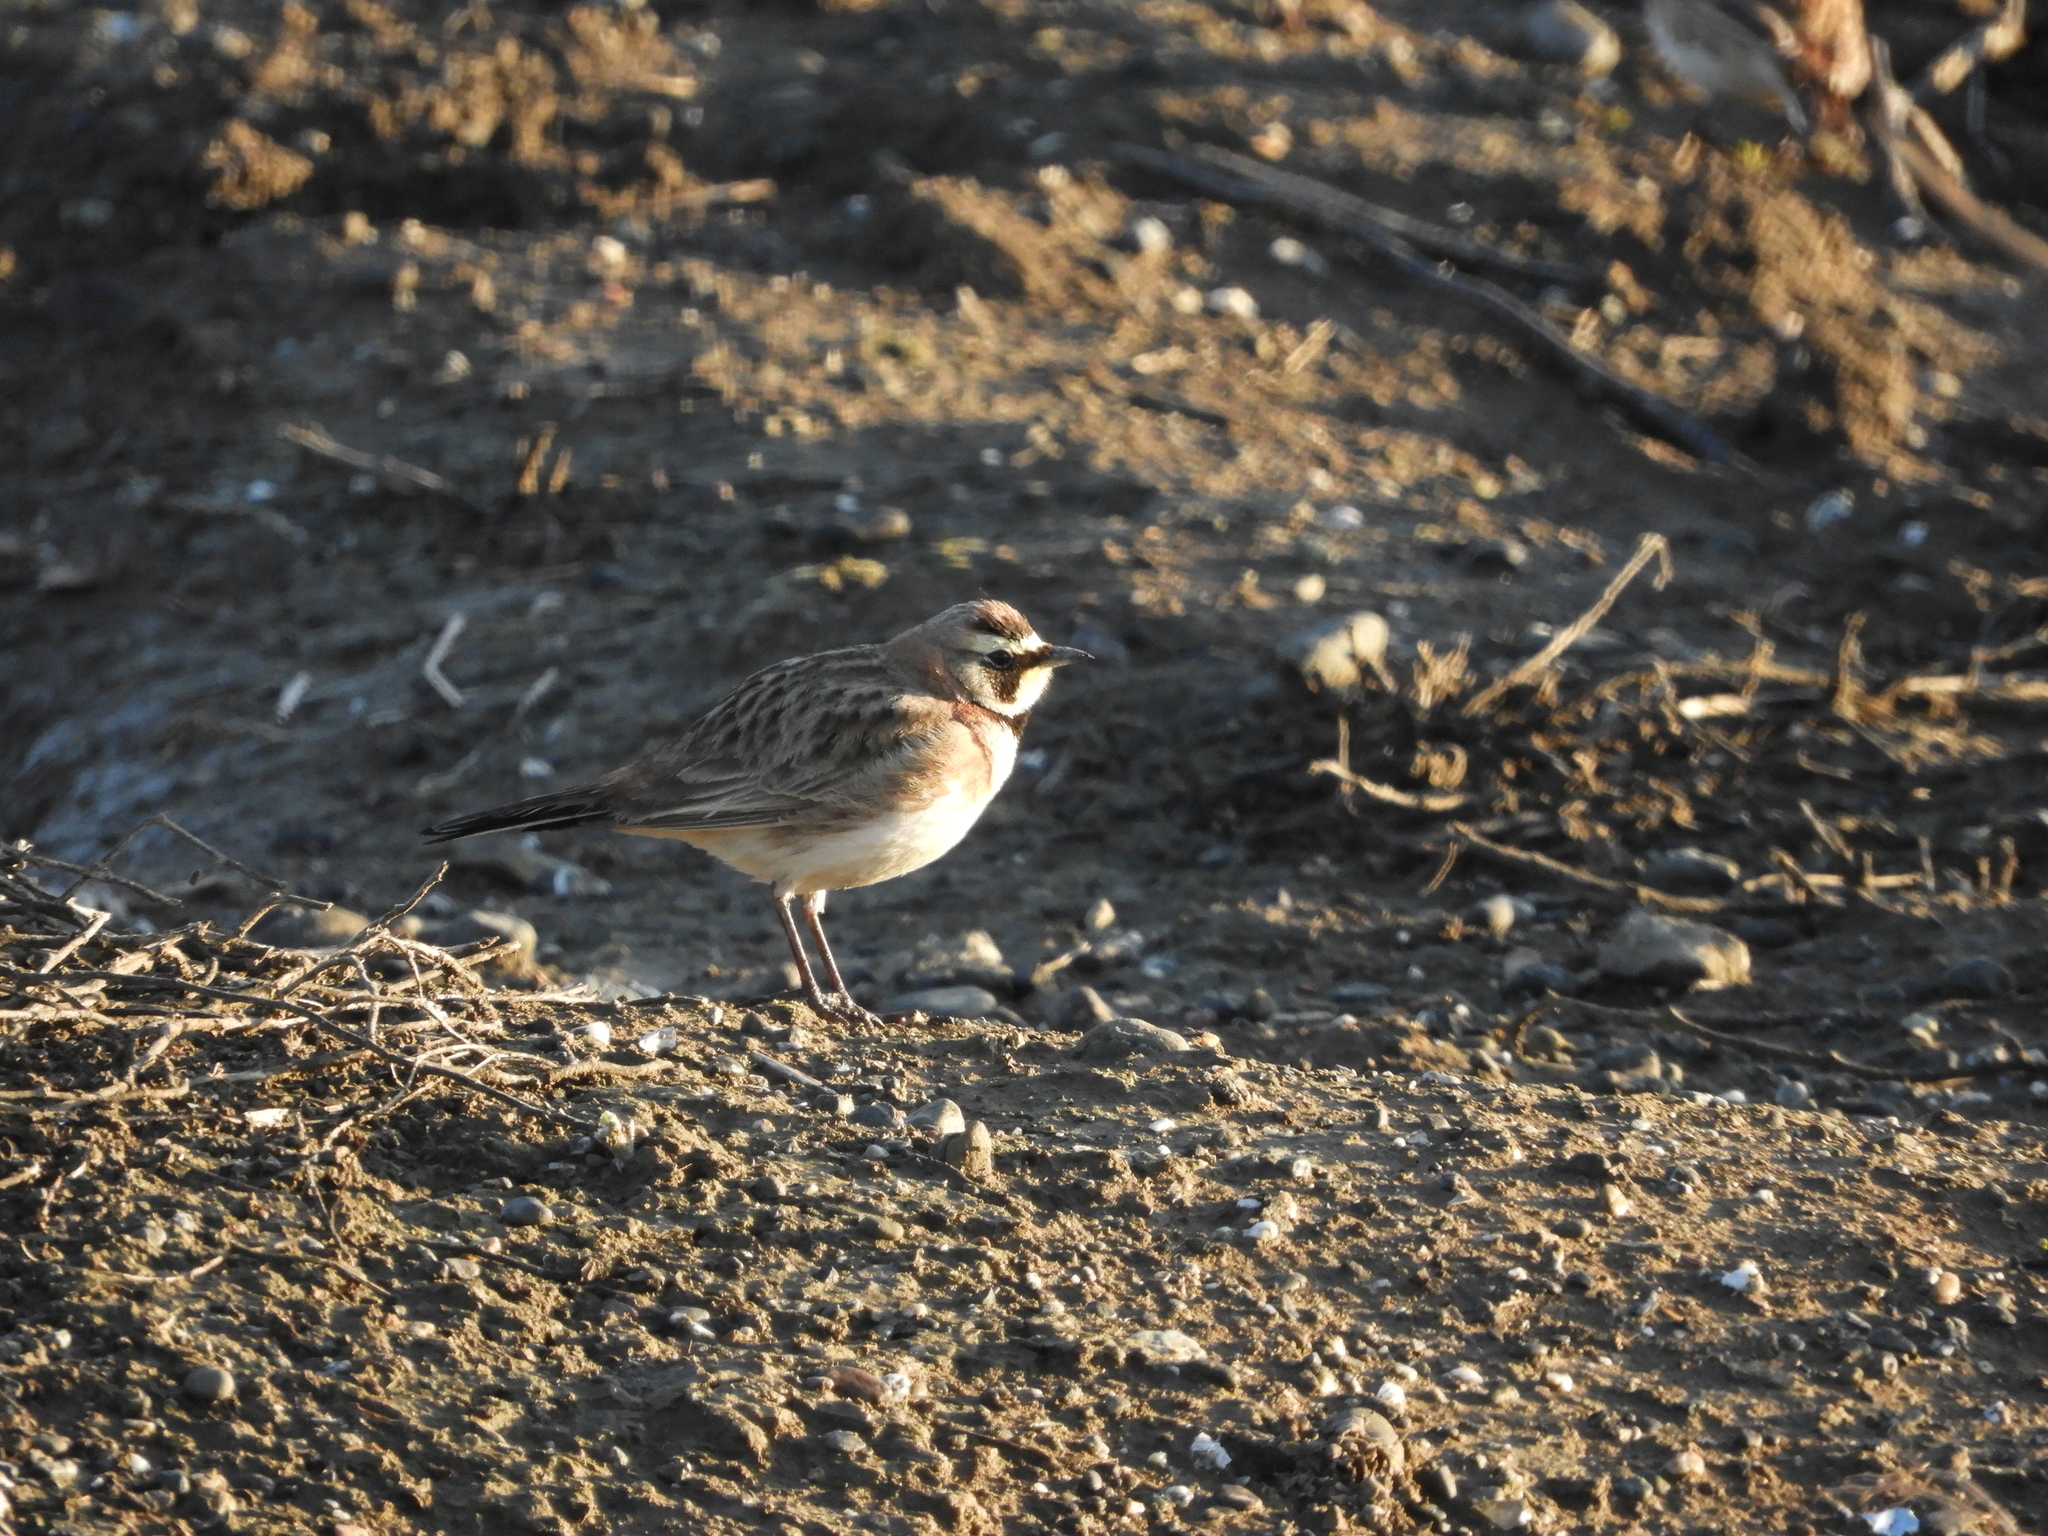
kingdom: Animalia
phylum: Chordata
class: Aves
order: Passeriformes
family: Alaudidae
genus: Eremophila
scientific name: Eremophila alpestris
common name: Horned lark
